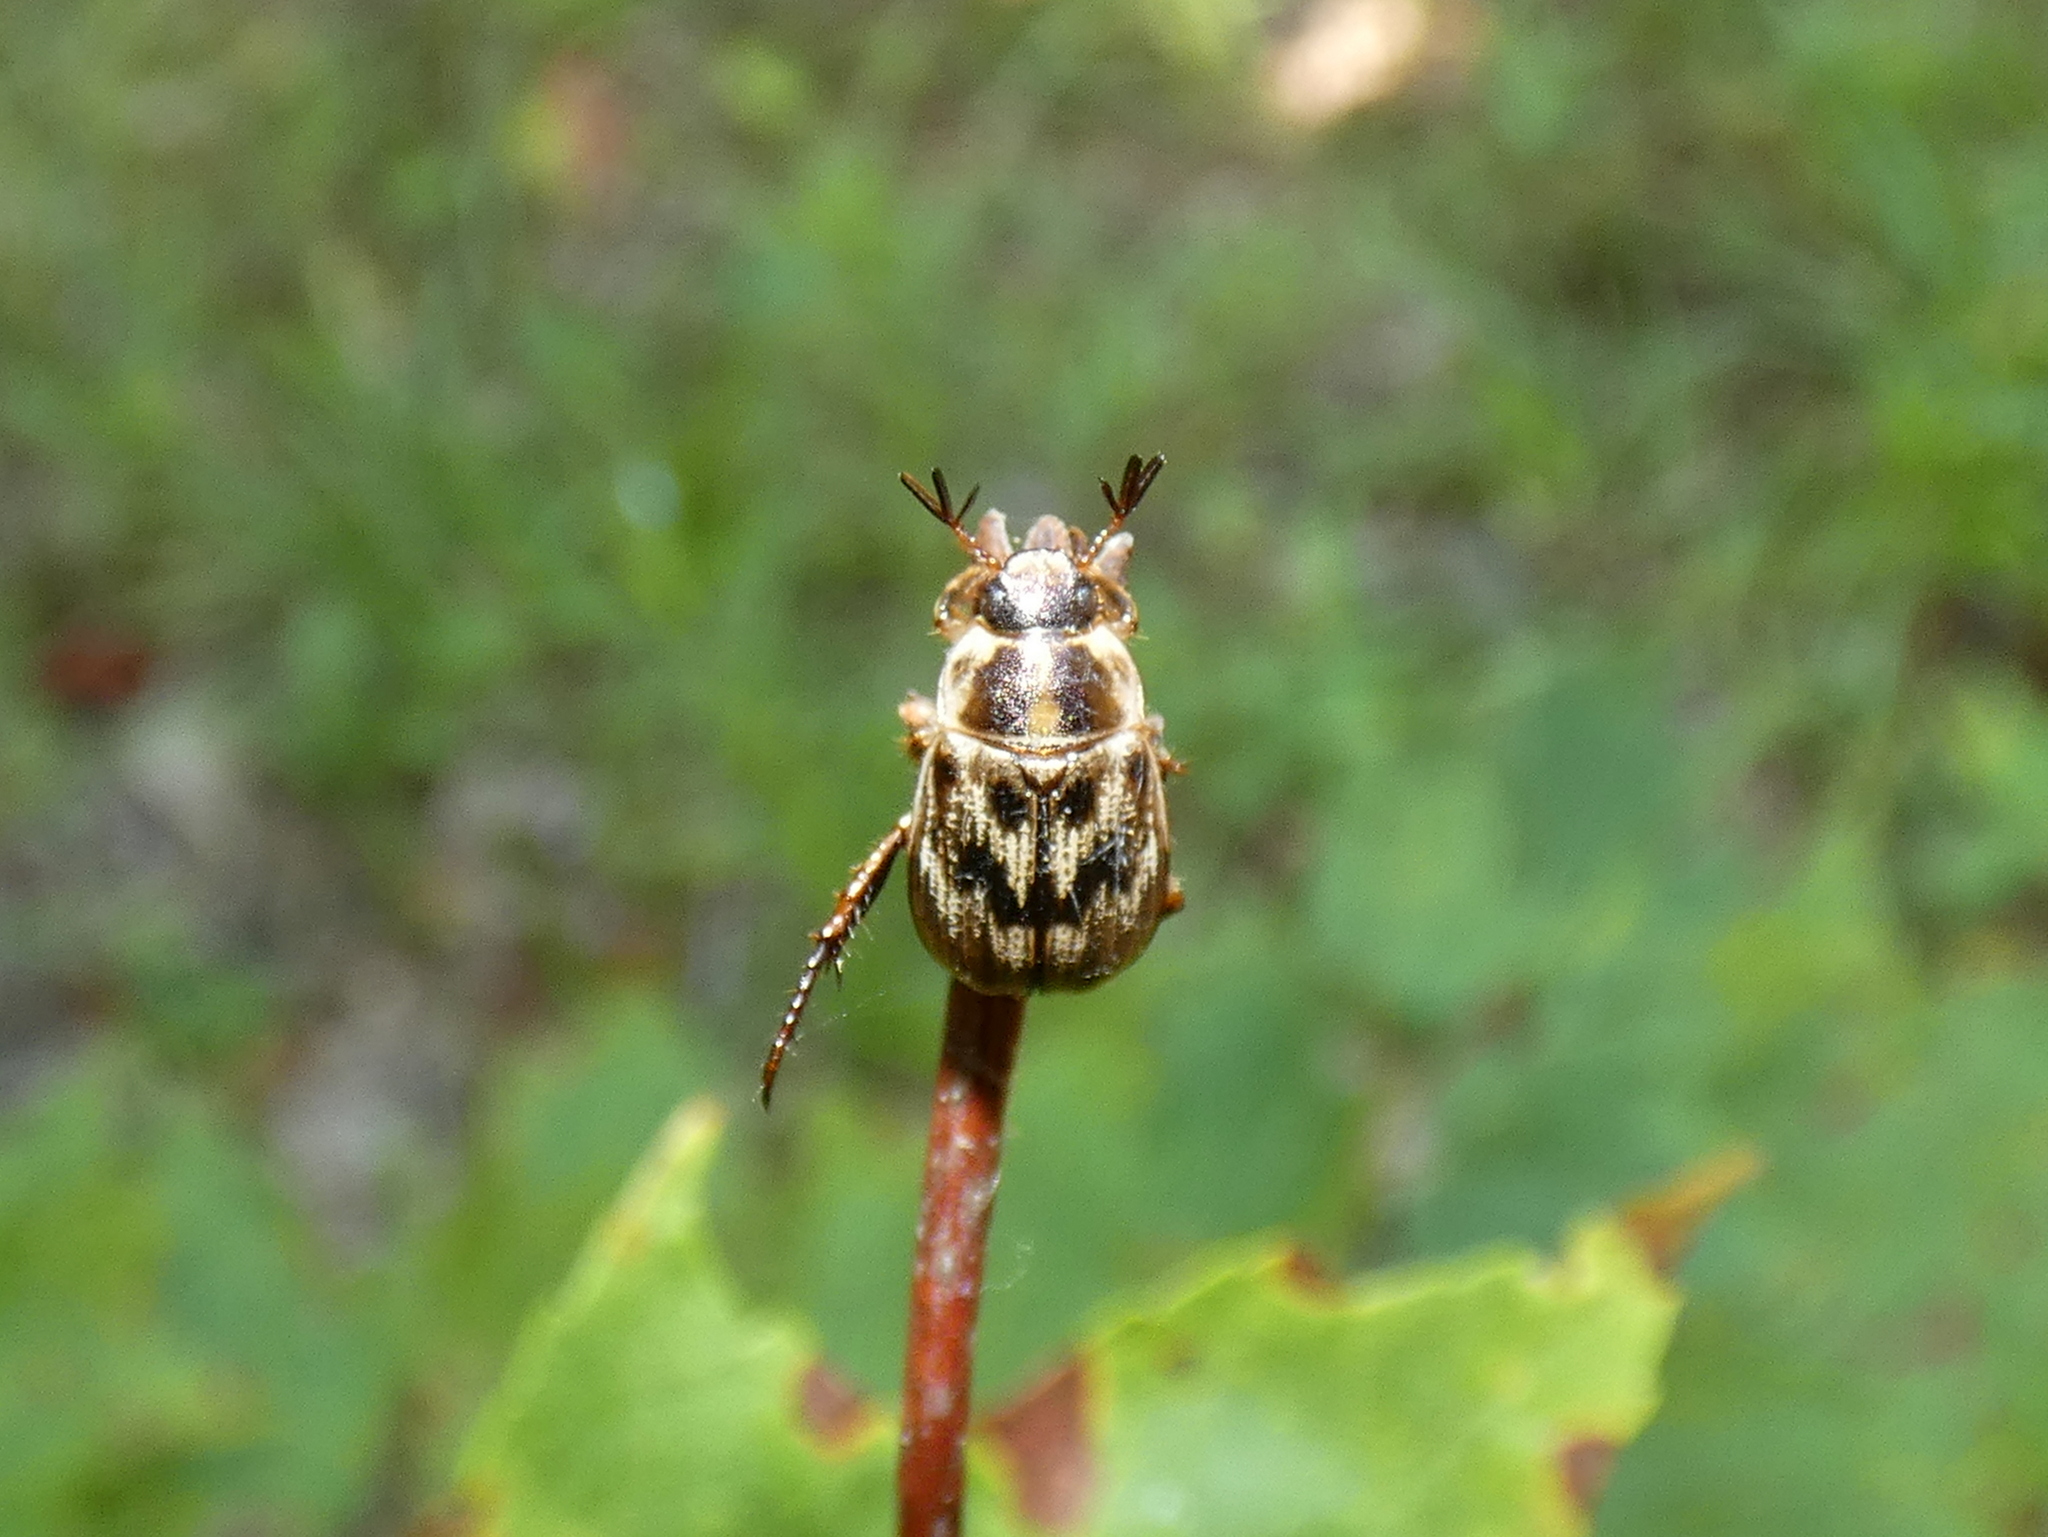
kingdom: Animalia
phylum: Arthropoda
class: Insecta
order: Coleoptera
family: Scarabaeidae
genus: Exomala
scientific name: Exomala orientalis
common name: Oriental beetle
